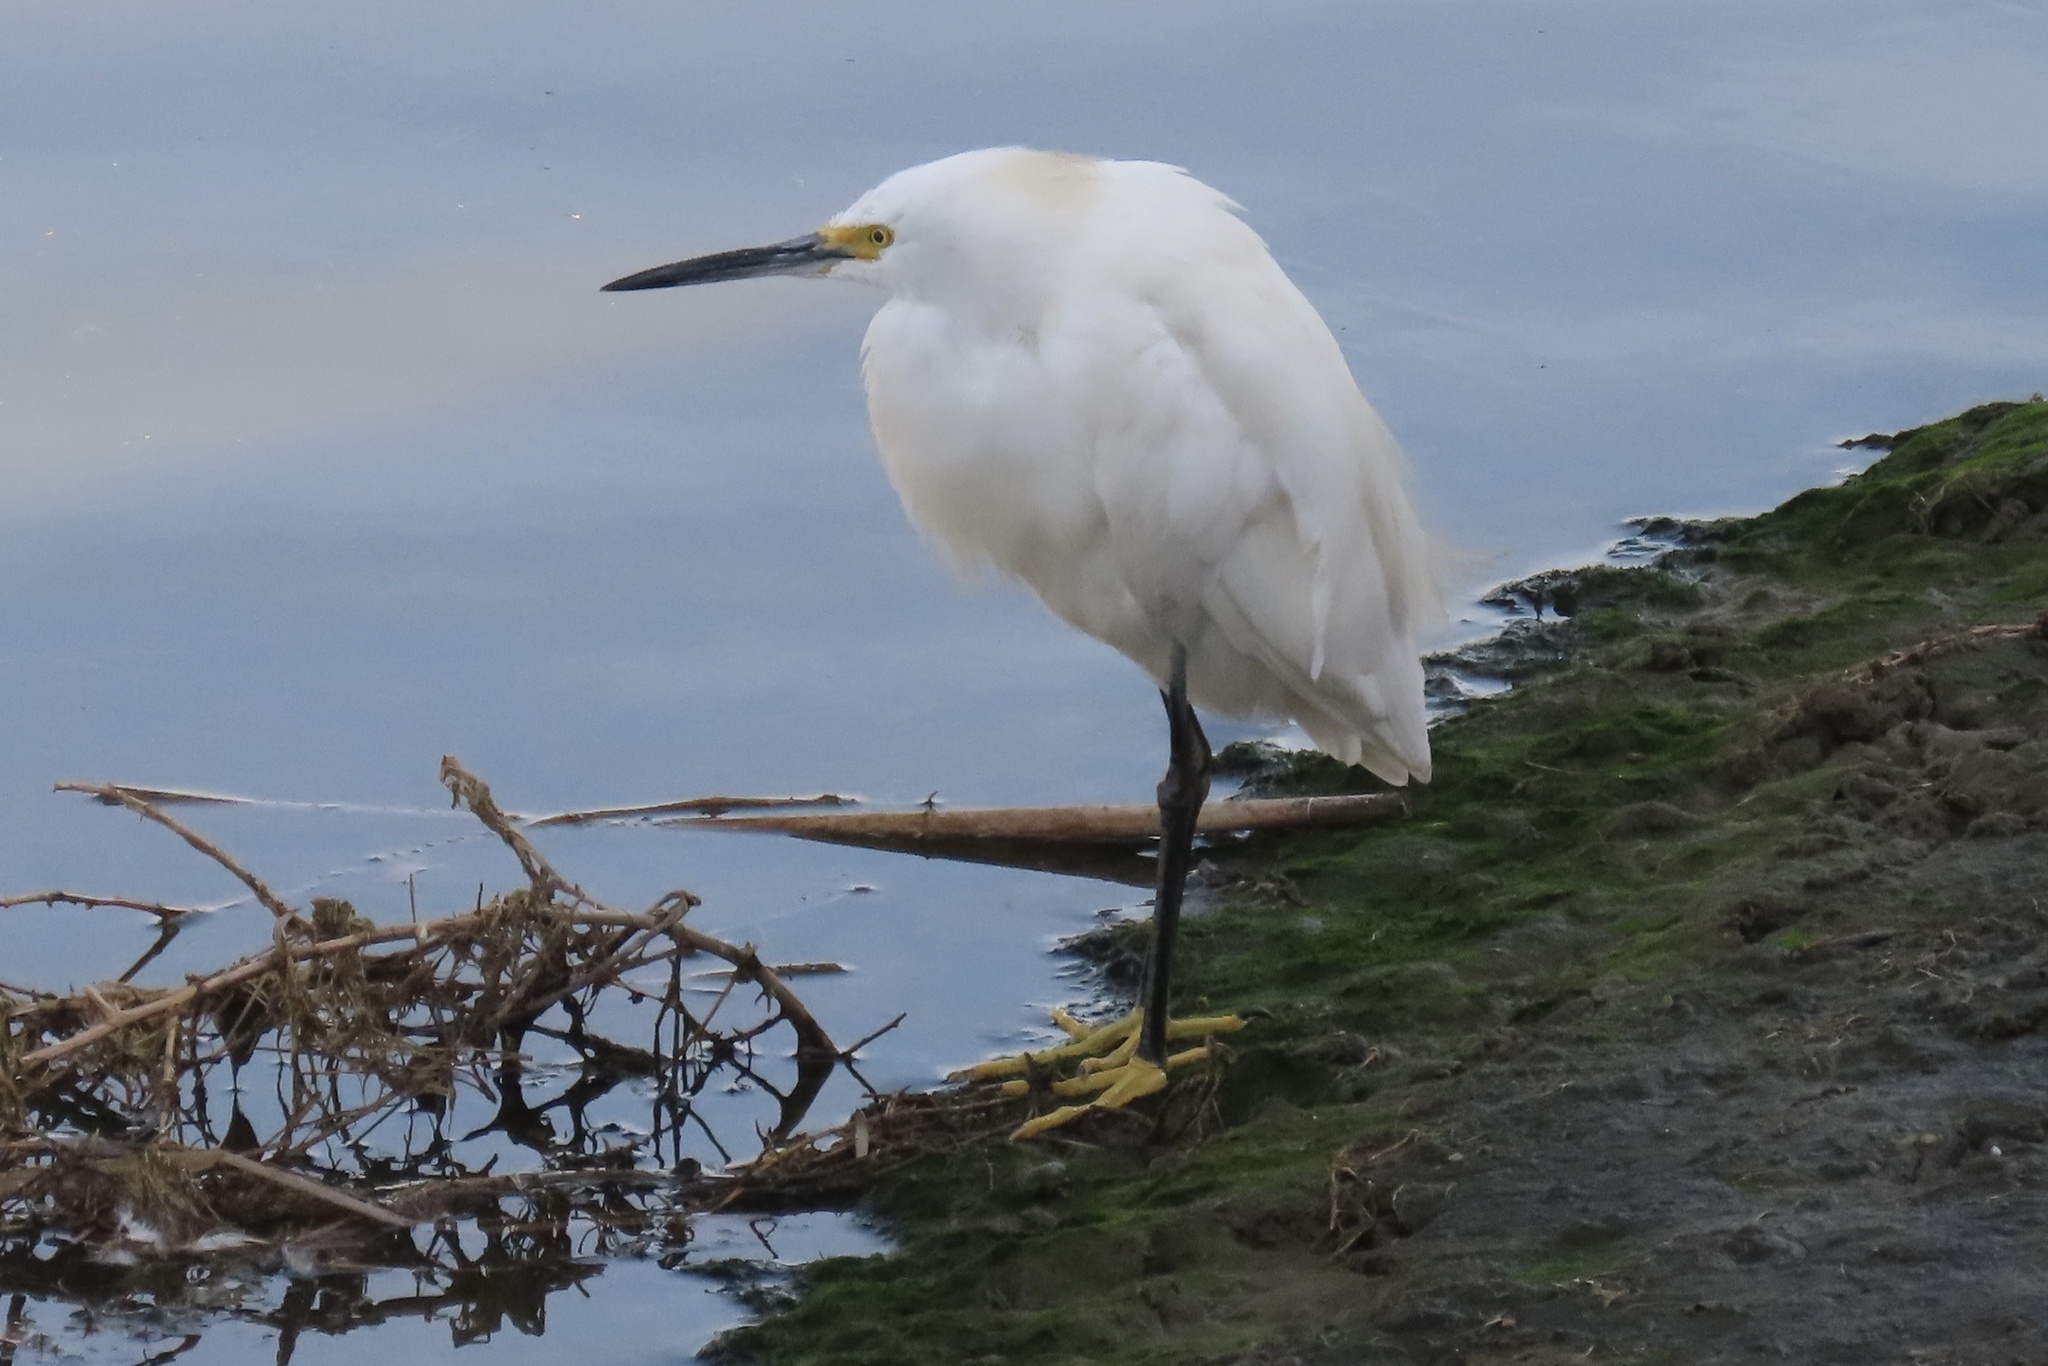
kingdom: Animalia
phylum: Chordata
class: Aves
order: Pelecaniformes
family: Ardeidae
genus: Egretta
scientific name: Egretta thula
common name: Snowy egret
